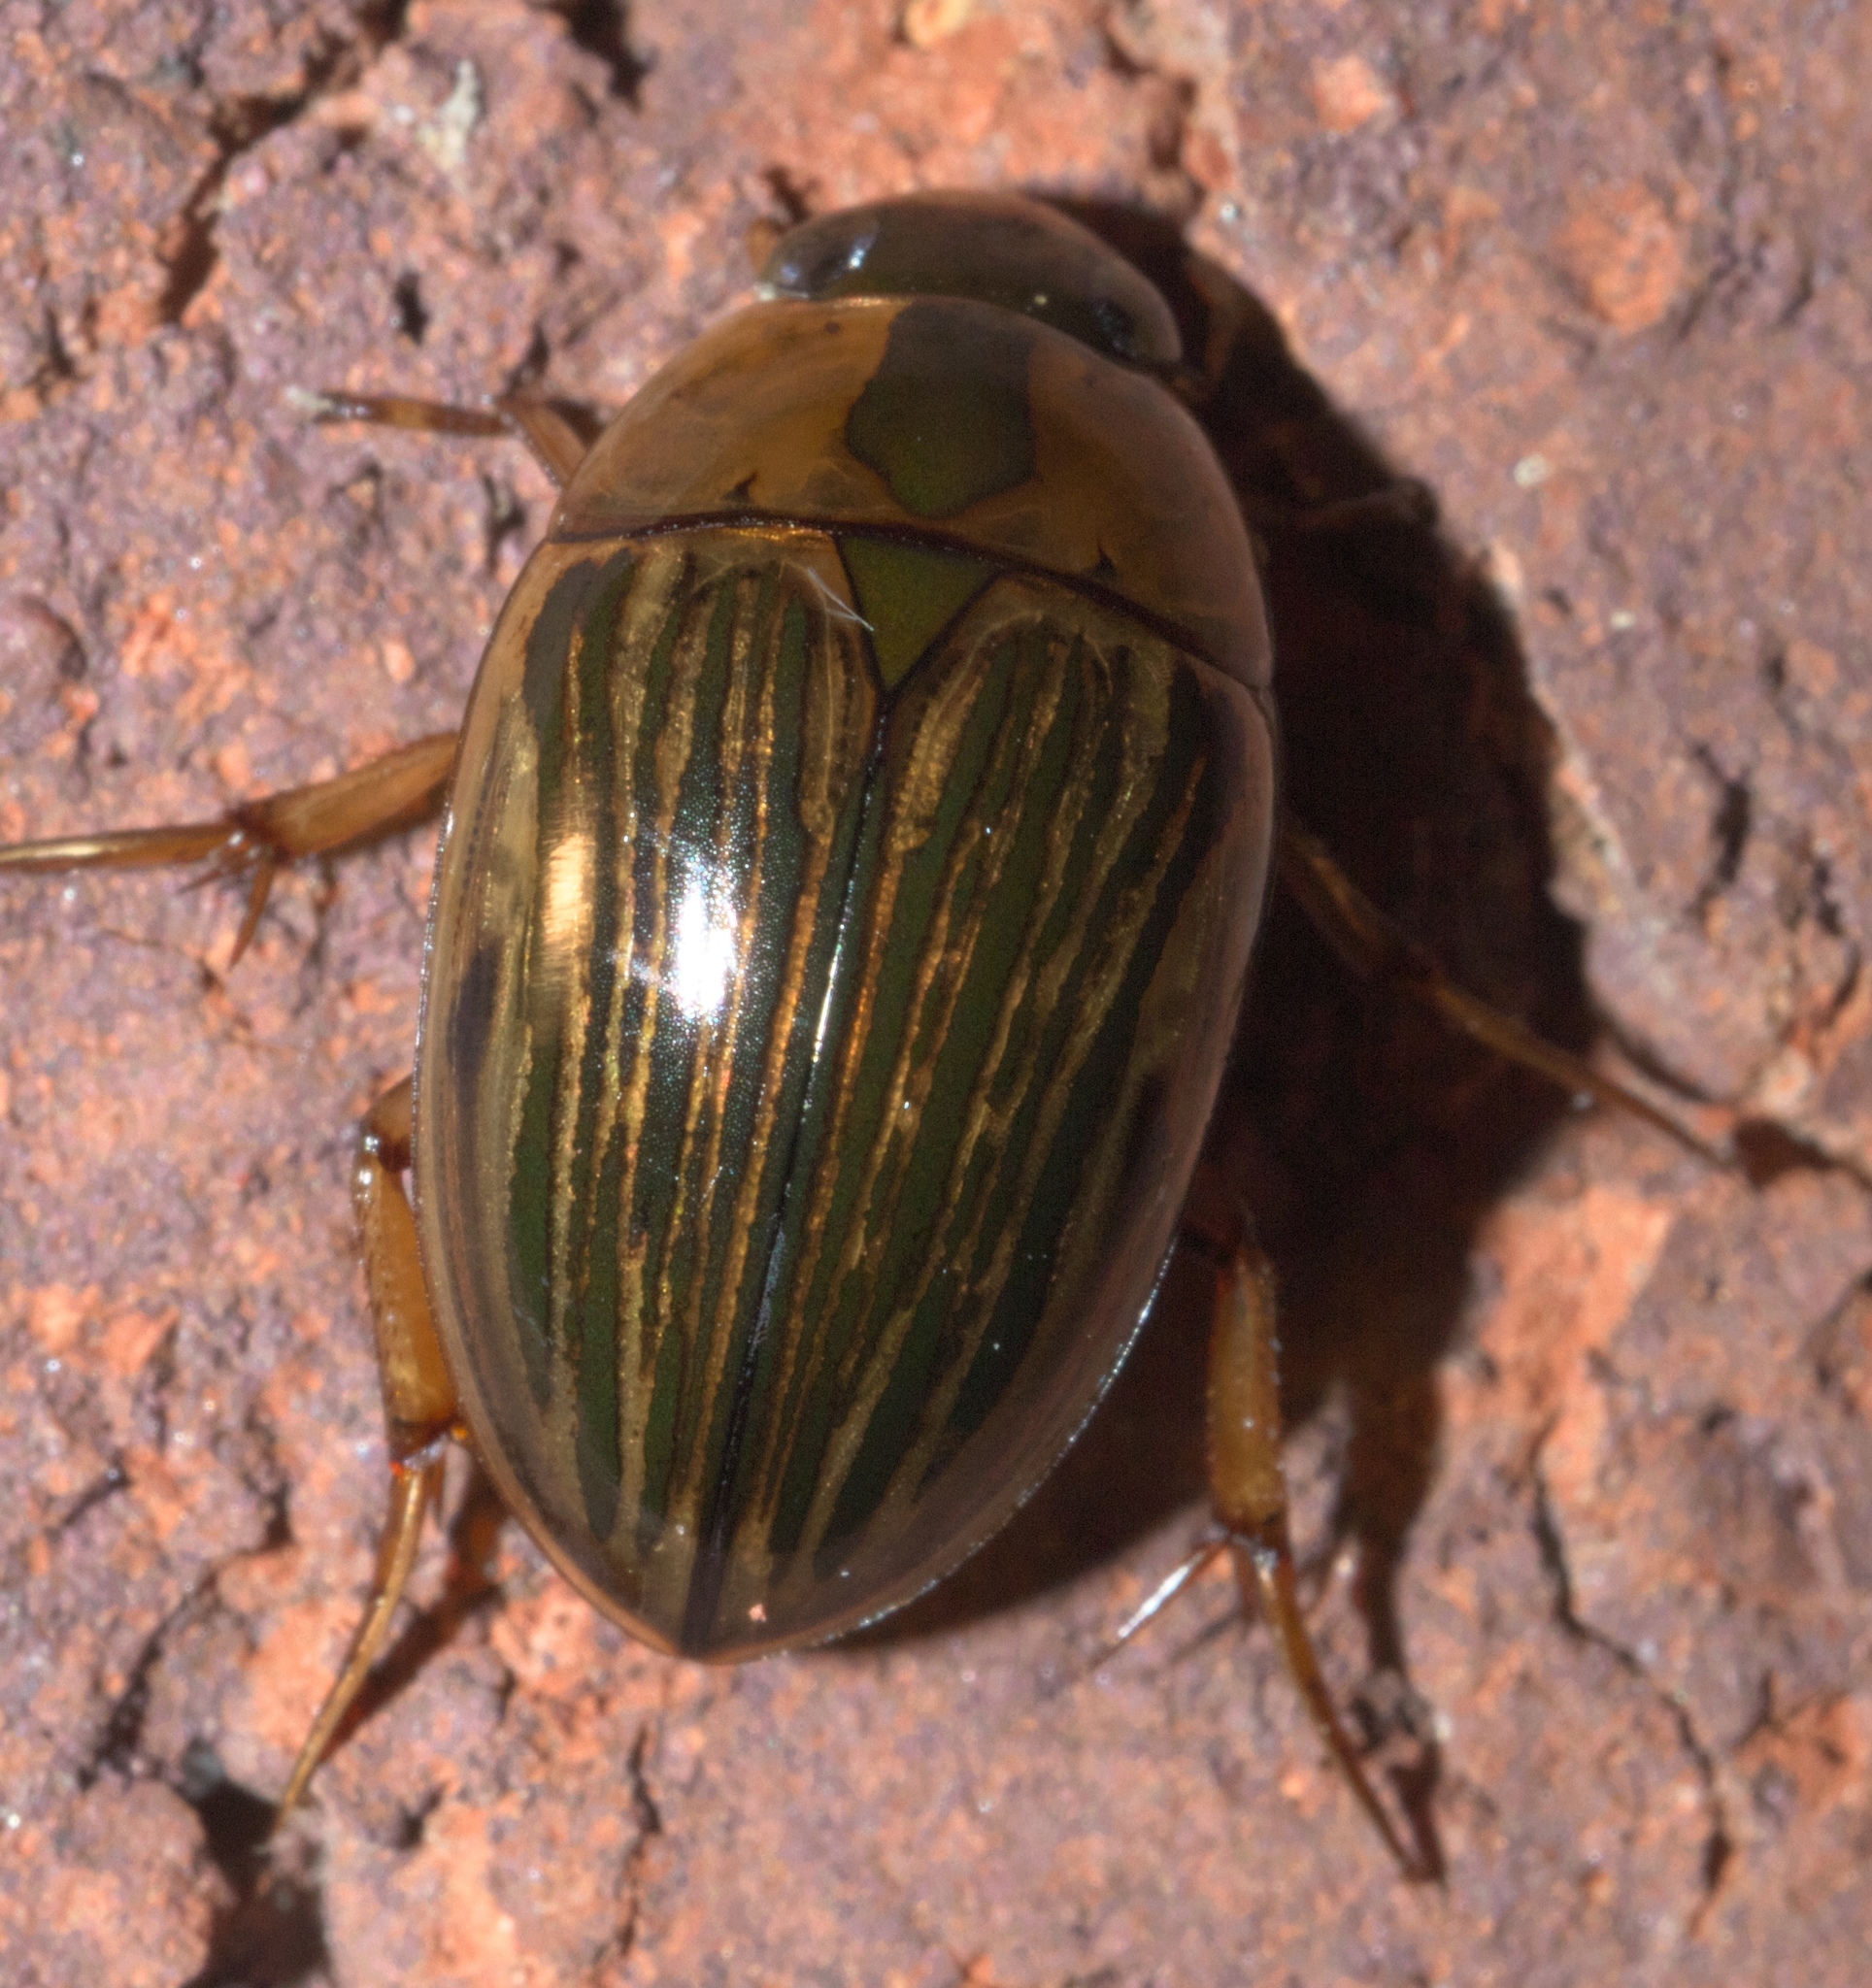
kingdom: Animalia
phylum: Arthropoda
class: Insecta
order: Coleoptera
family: Hydrophilidae
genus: Tropisternus
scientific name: Tropisternus collaris
